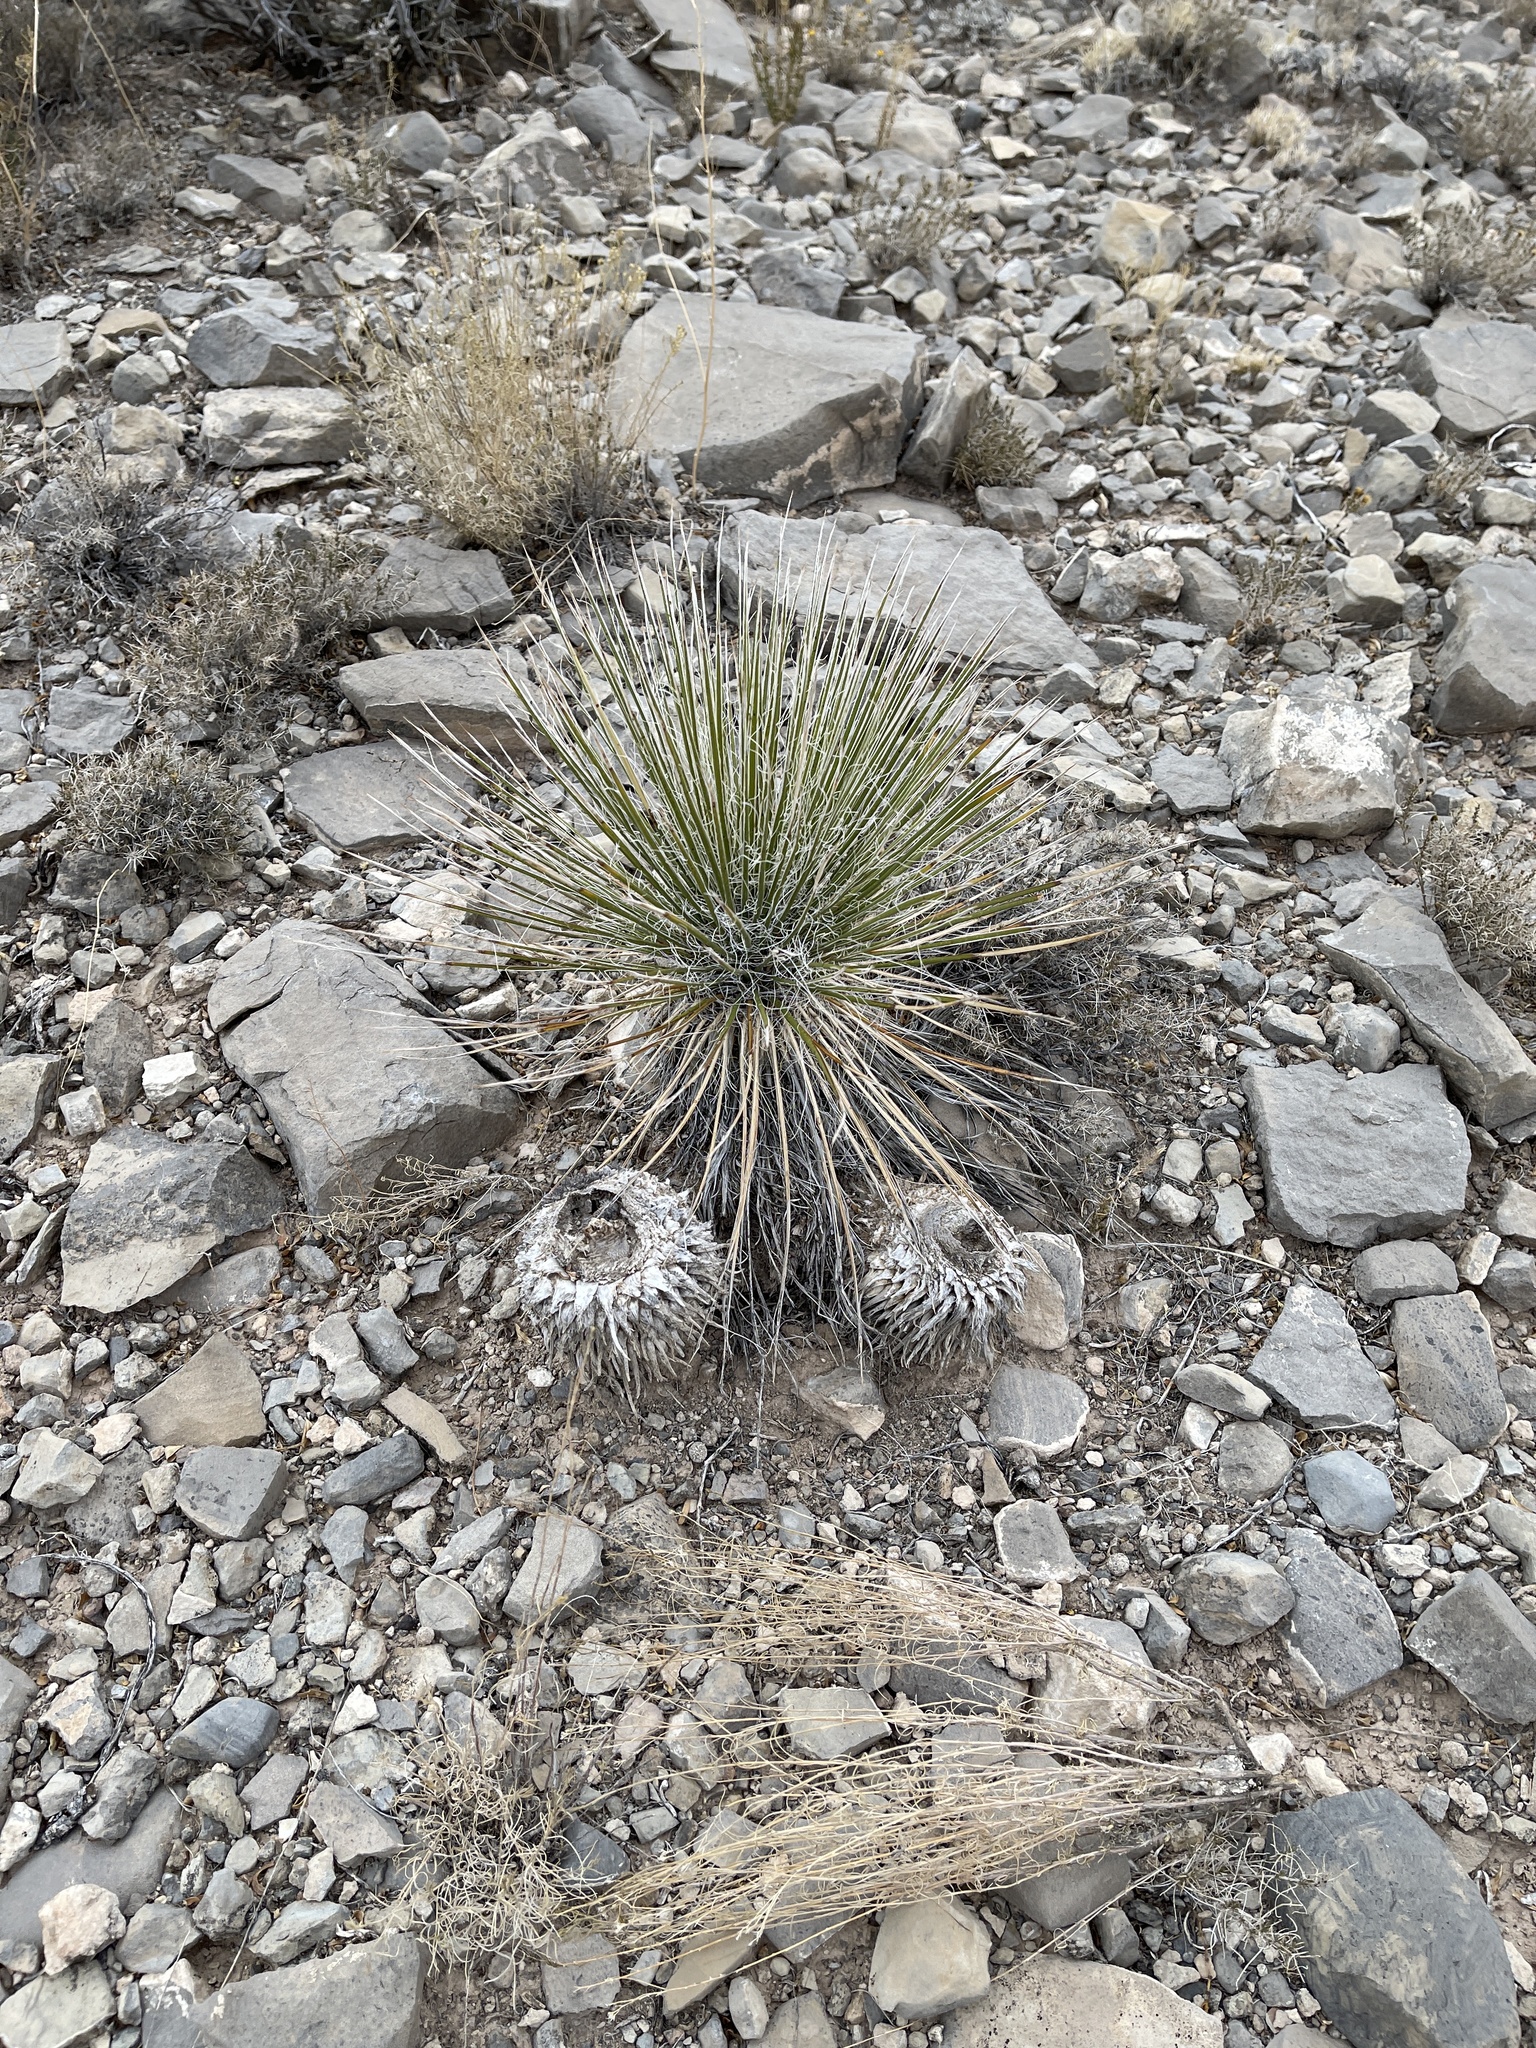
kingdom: Plantae
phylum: Tracheophyta
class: Liliopsida
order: Asparagales
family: Asparagaceae
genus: Yucca
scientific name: Yucca elata
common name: Palmella
